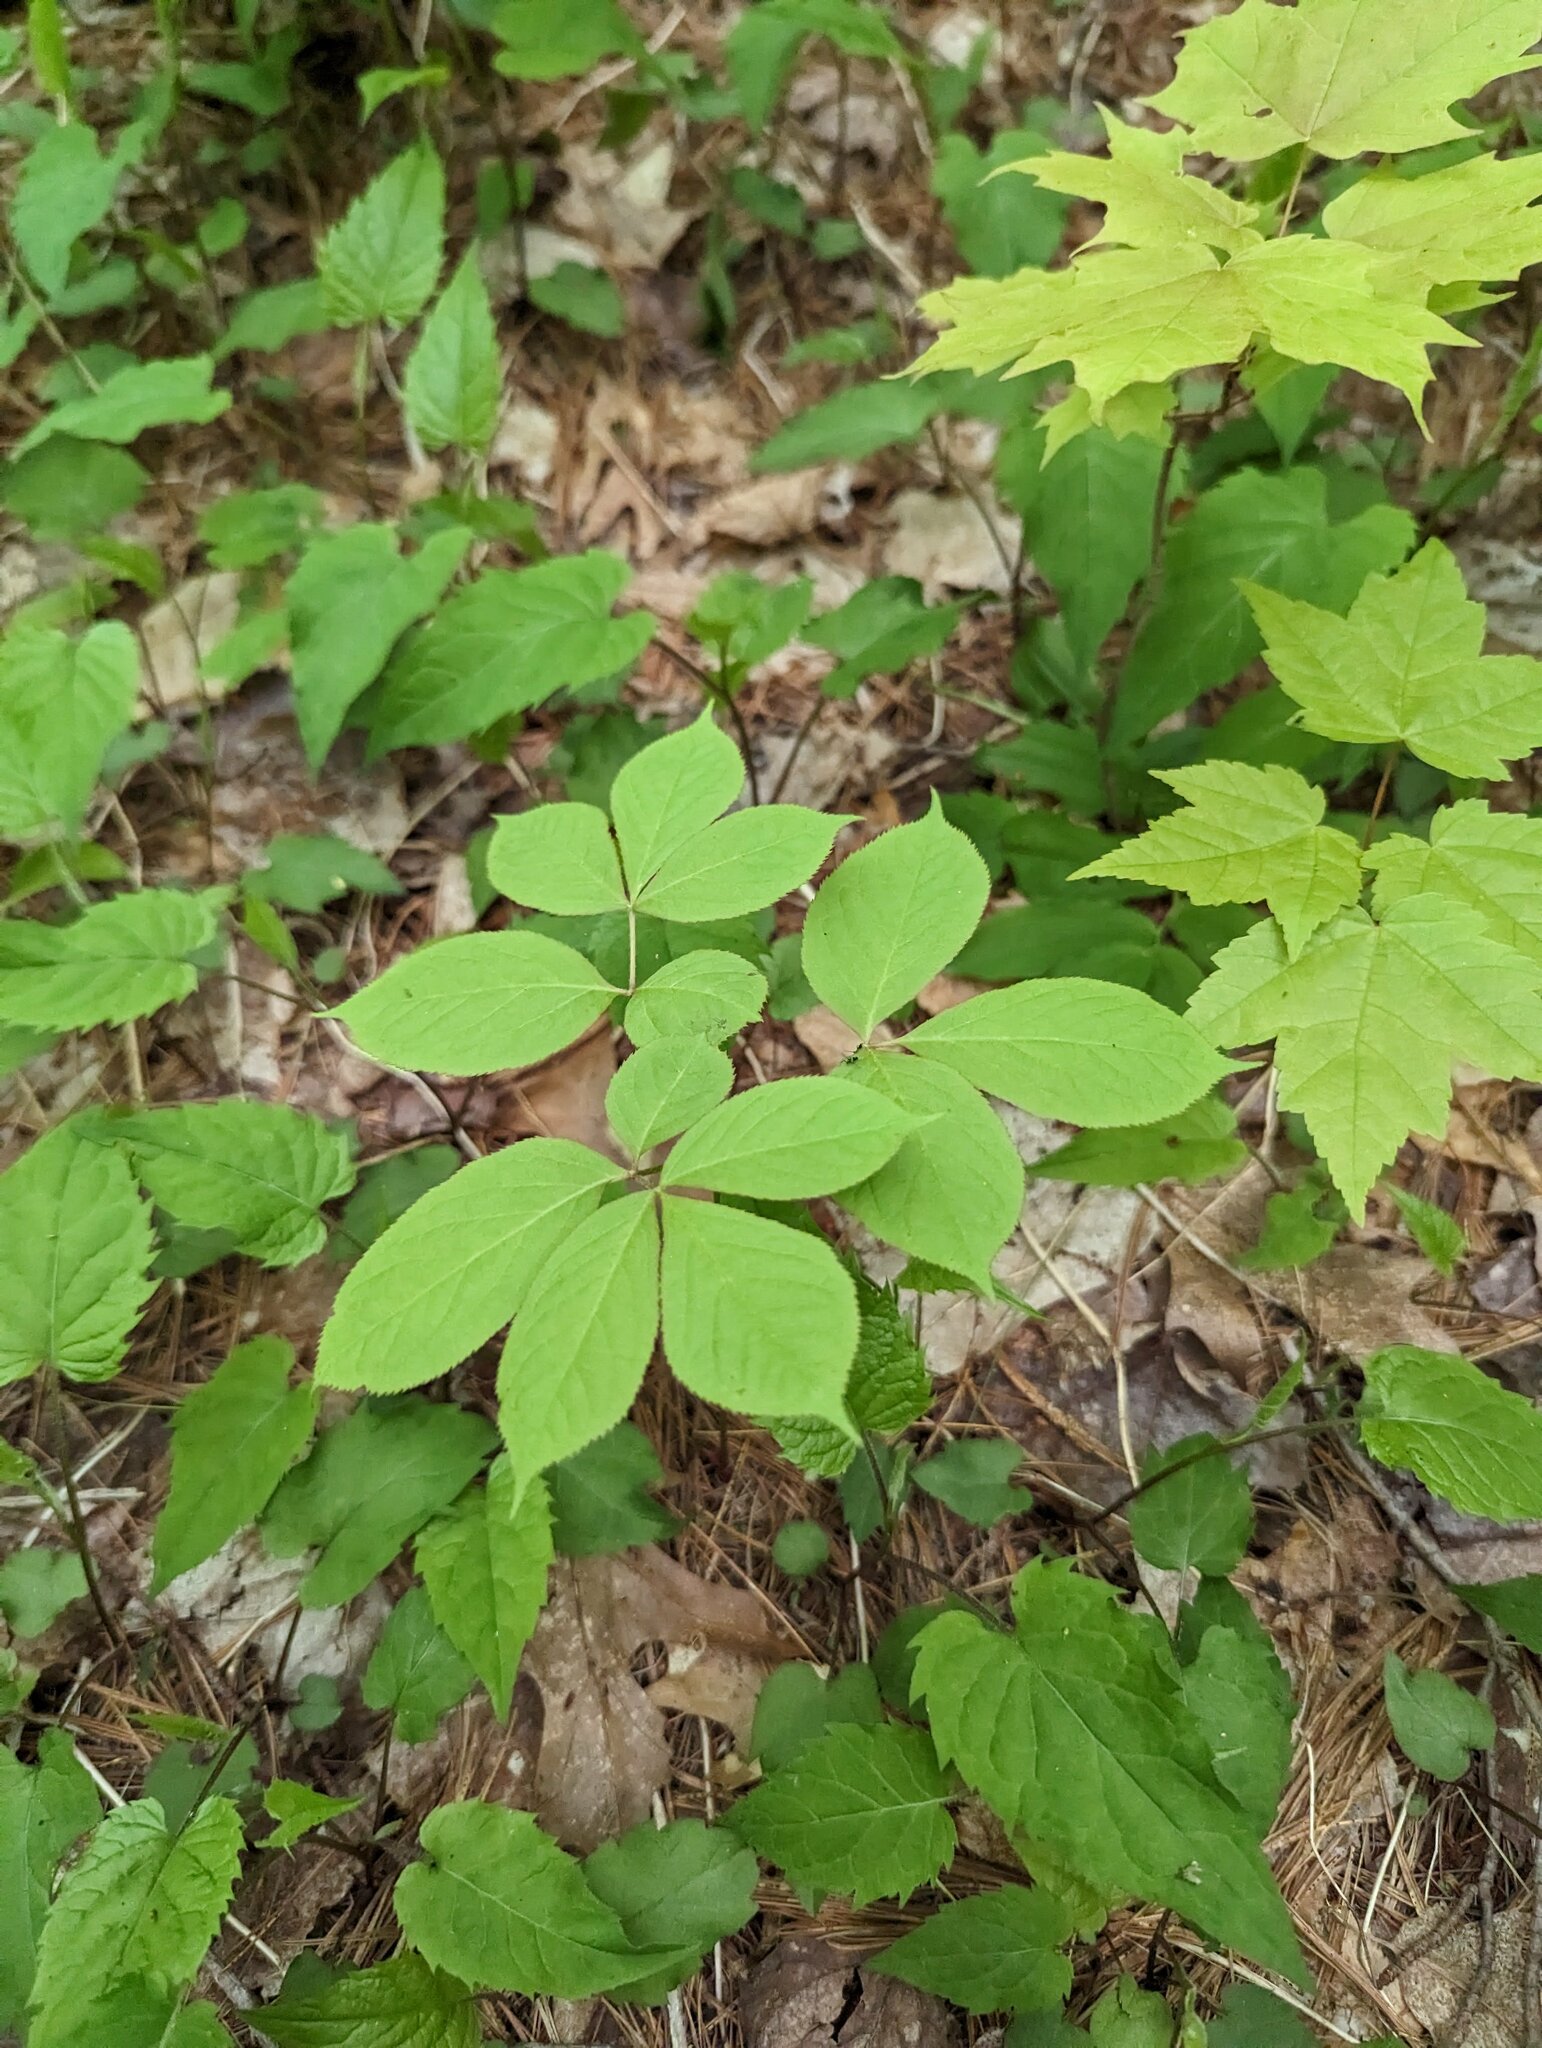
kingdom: Plantae
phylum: Tracheophyta
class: Magnoliopsida
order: Apiales
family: Araliaceae
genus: Aralia
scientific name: Aralia nudicaulis
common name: Wild sarsaparilla
